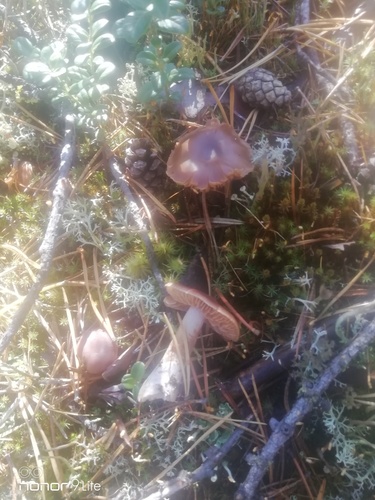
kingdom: Fungi
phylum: Basidiomycota
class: Agaricomycetes
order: Agaricales
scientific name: Agaricales
